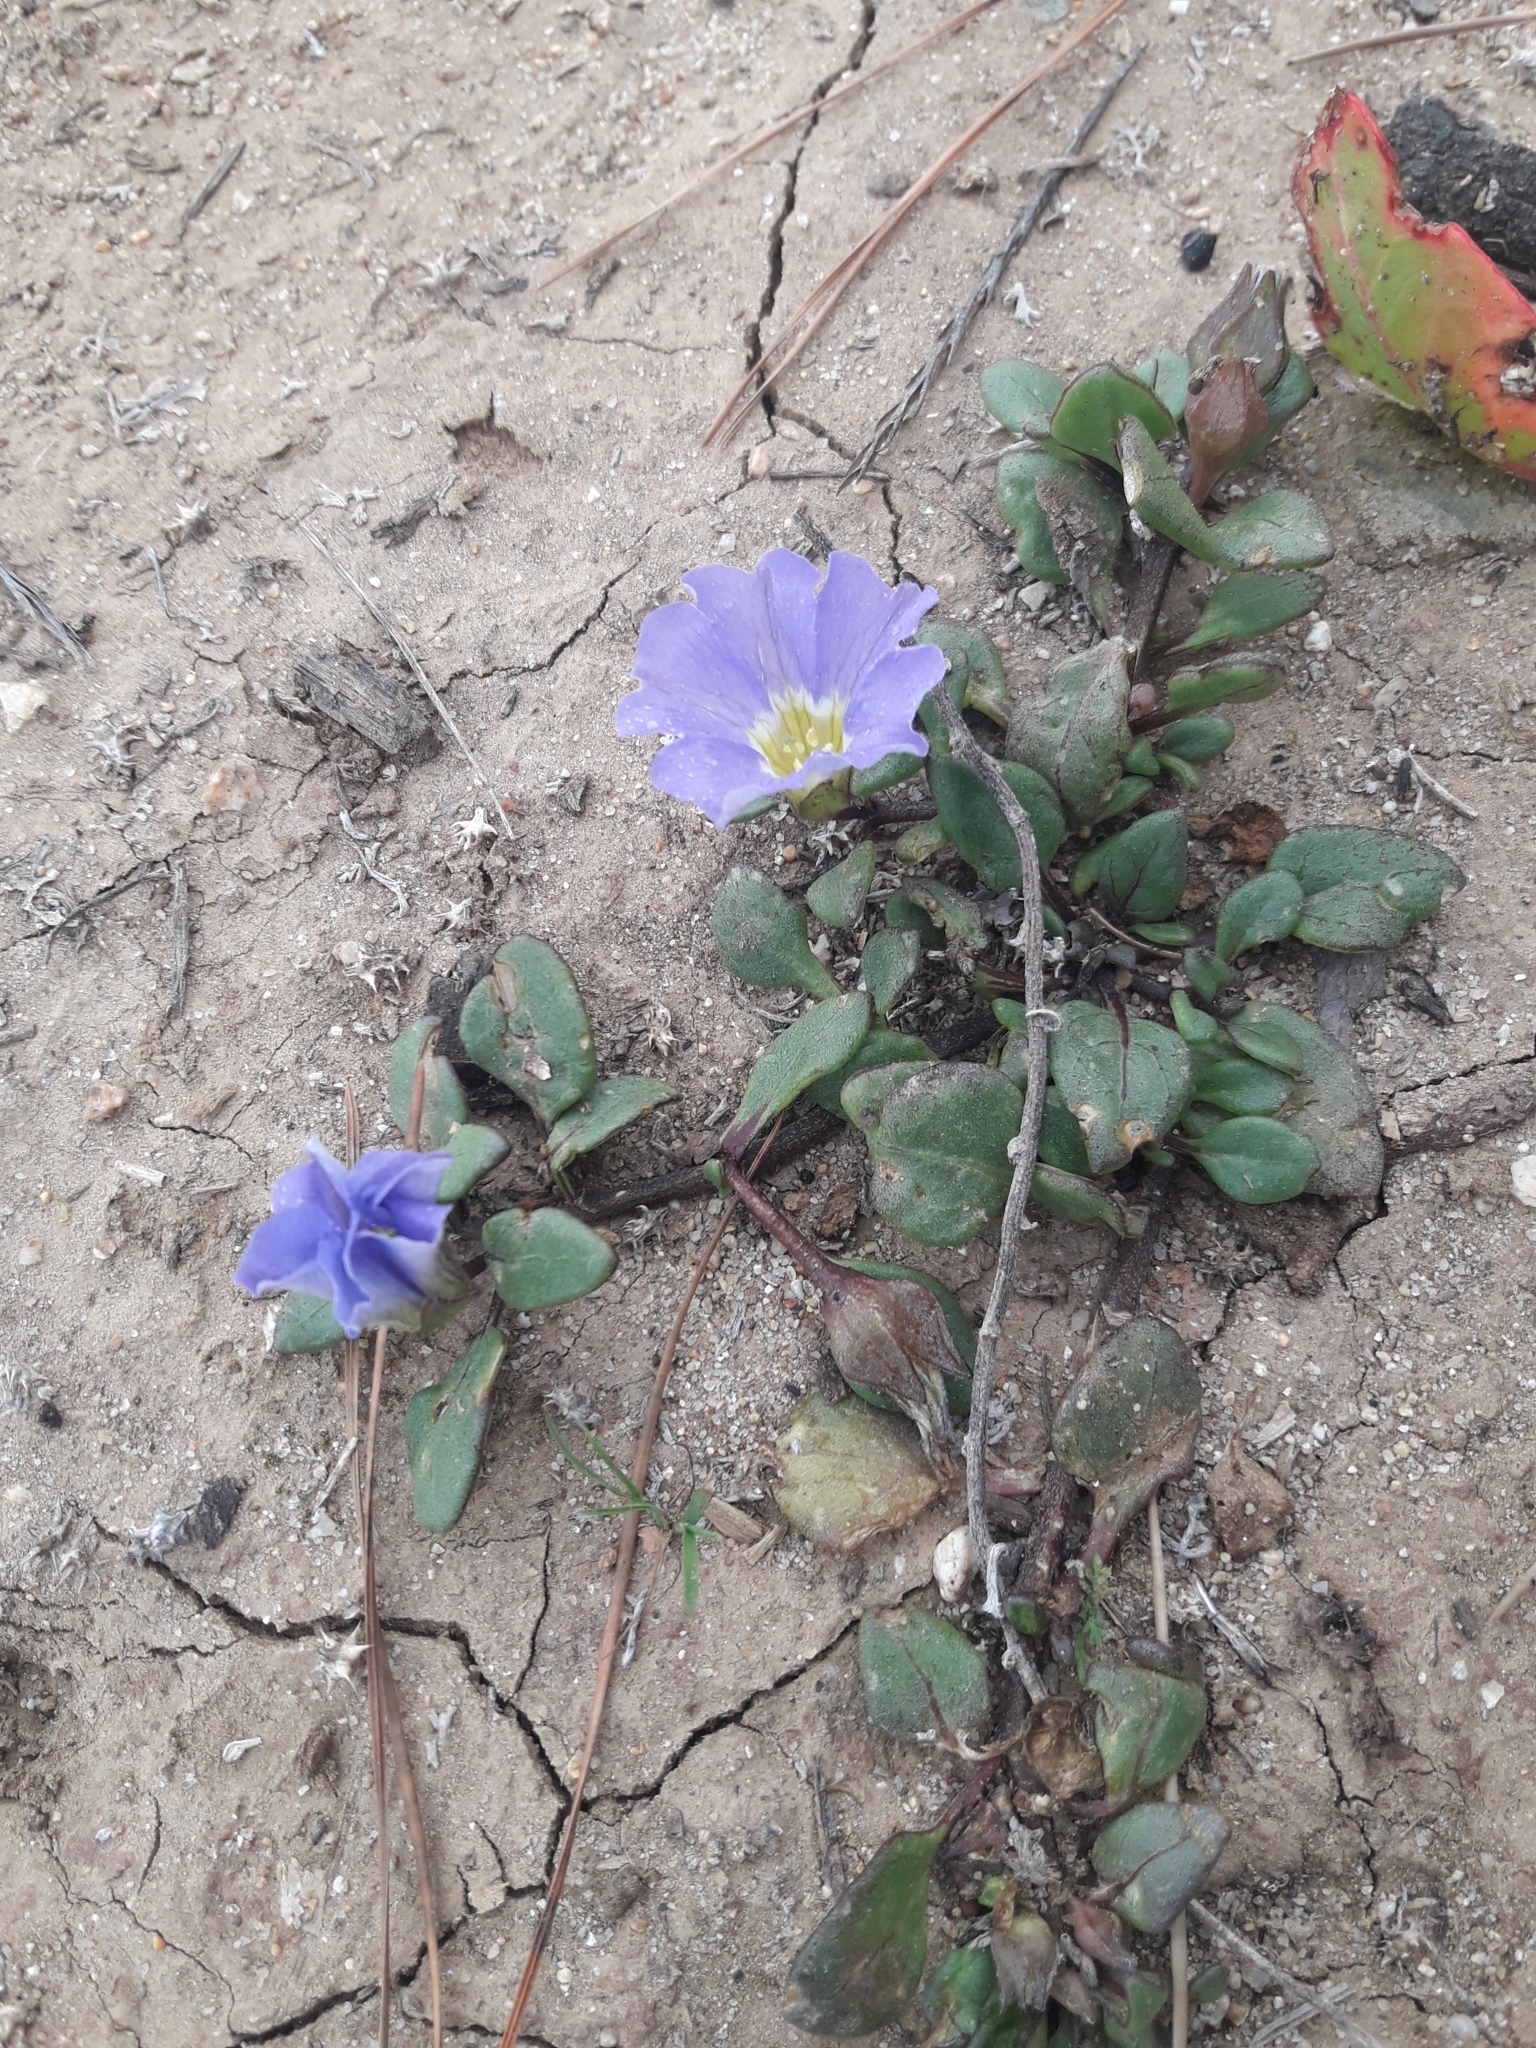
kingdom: Plantae
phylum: Tracheophyta
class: Magnoliopsida
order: Solanales
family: Solanaceae
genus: Nolana
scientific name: Nolana paradoxa
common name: Chilean-bellflower
